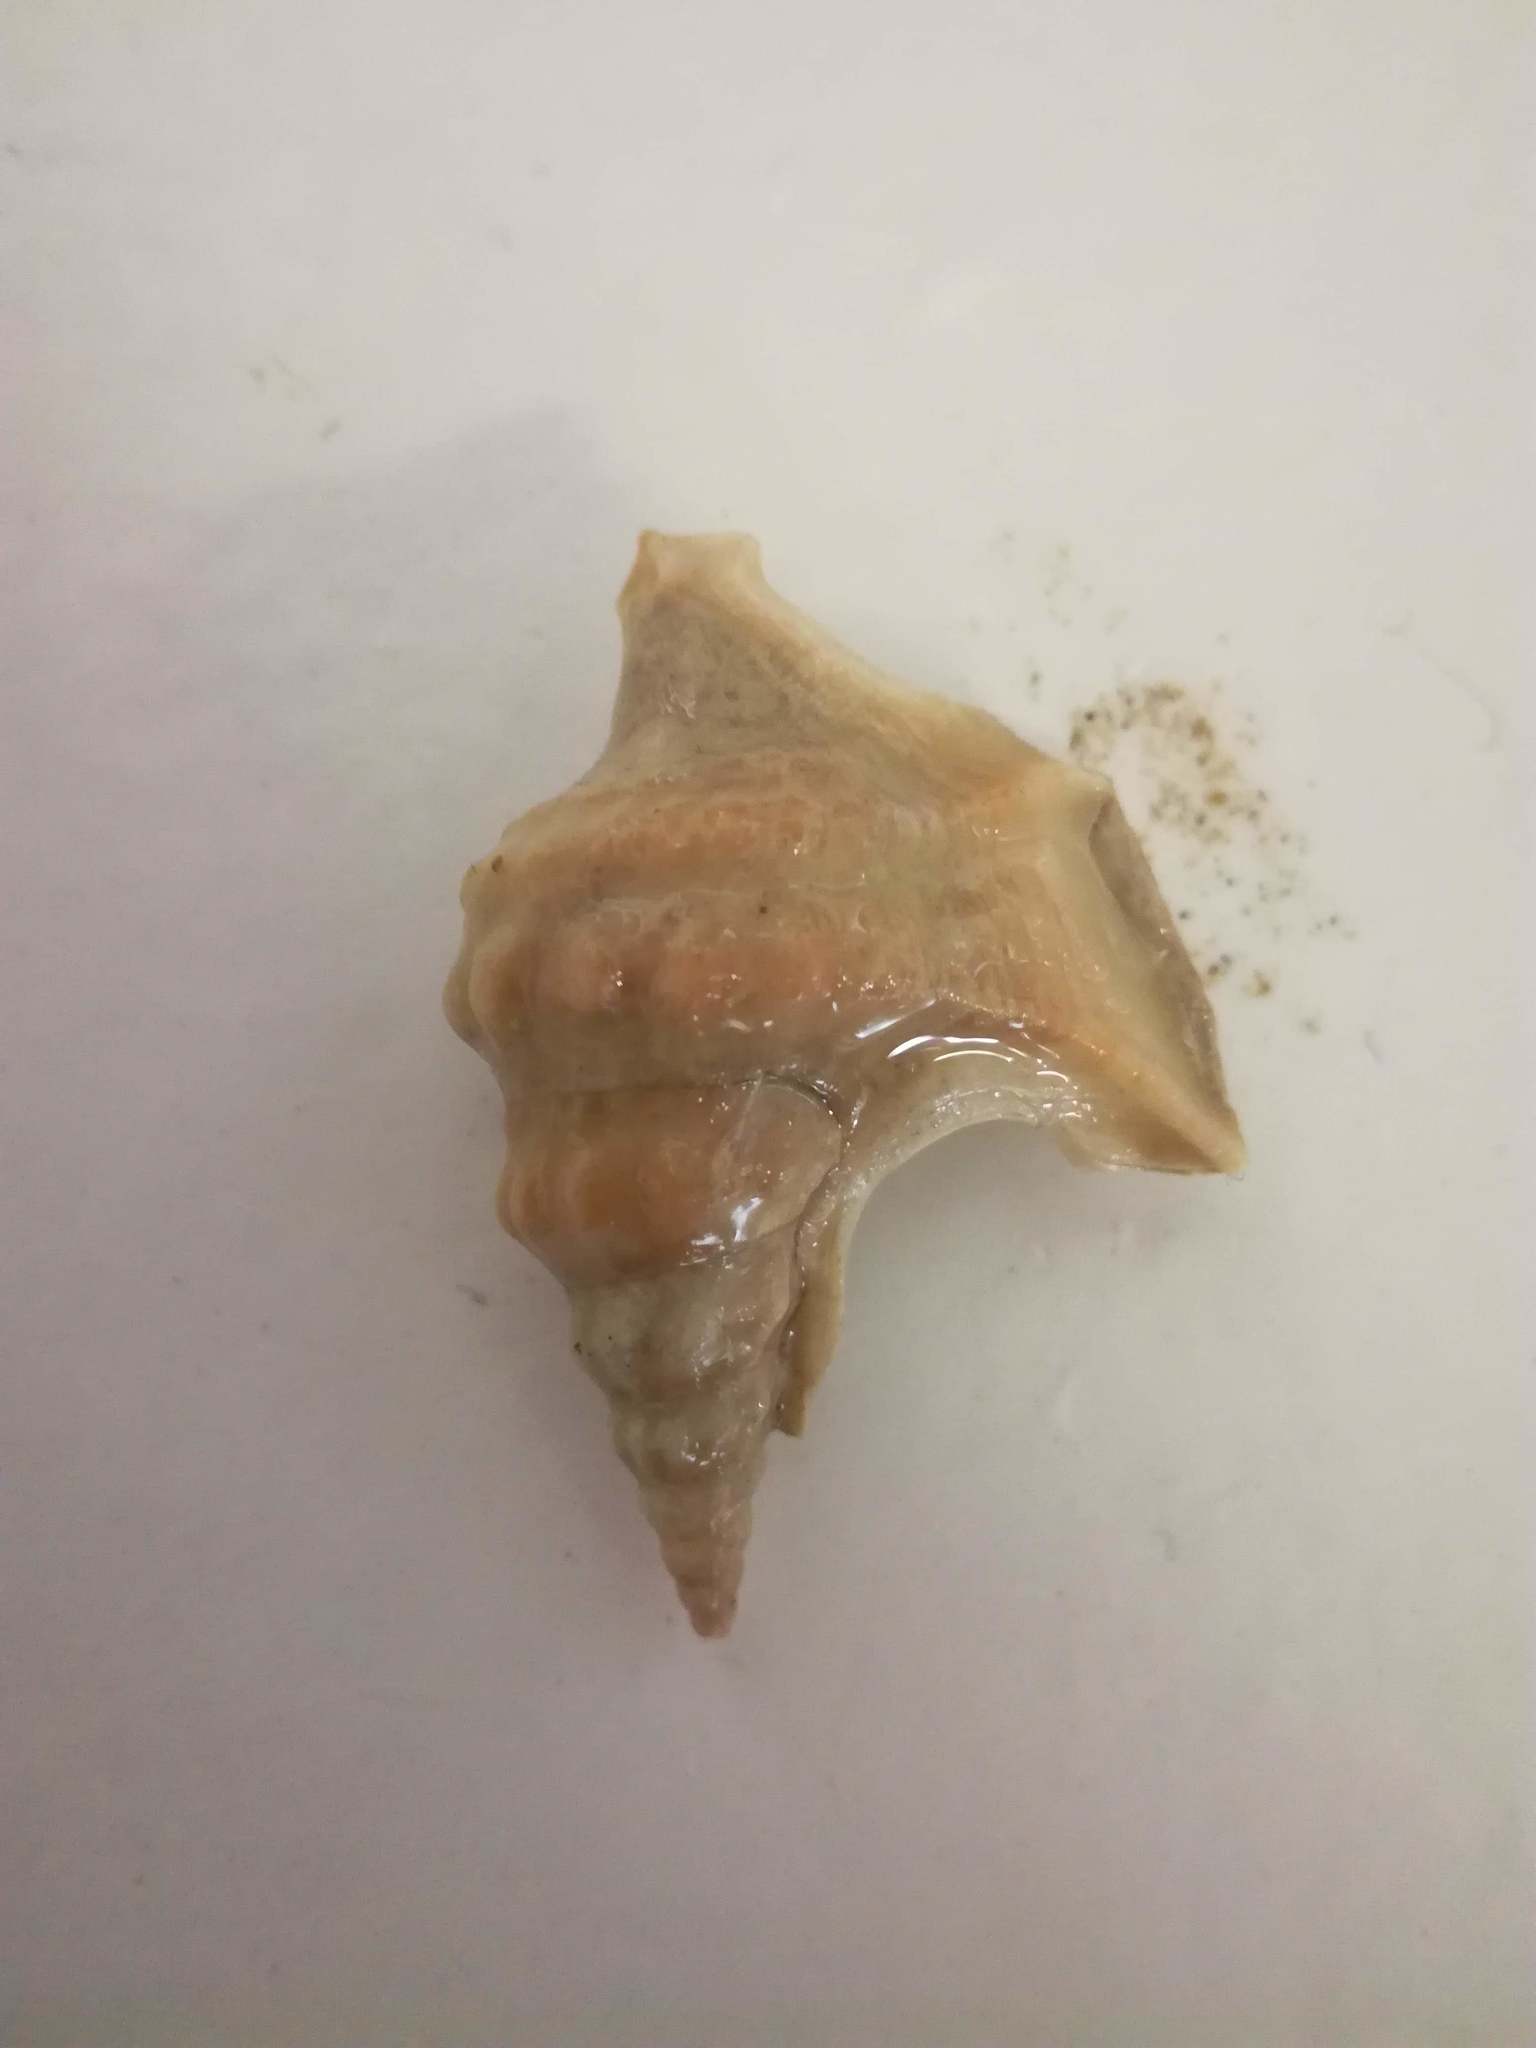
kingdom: Animalia
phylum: Mollusca
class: Gastropoda
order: Littorinimorpha
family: Aporrhaidae
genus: Aporrhais
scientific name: Aporrhais pespelecani
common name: Common pelican’s foot
